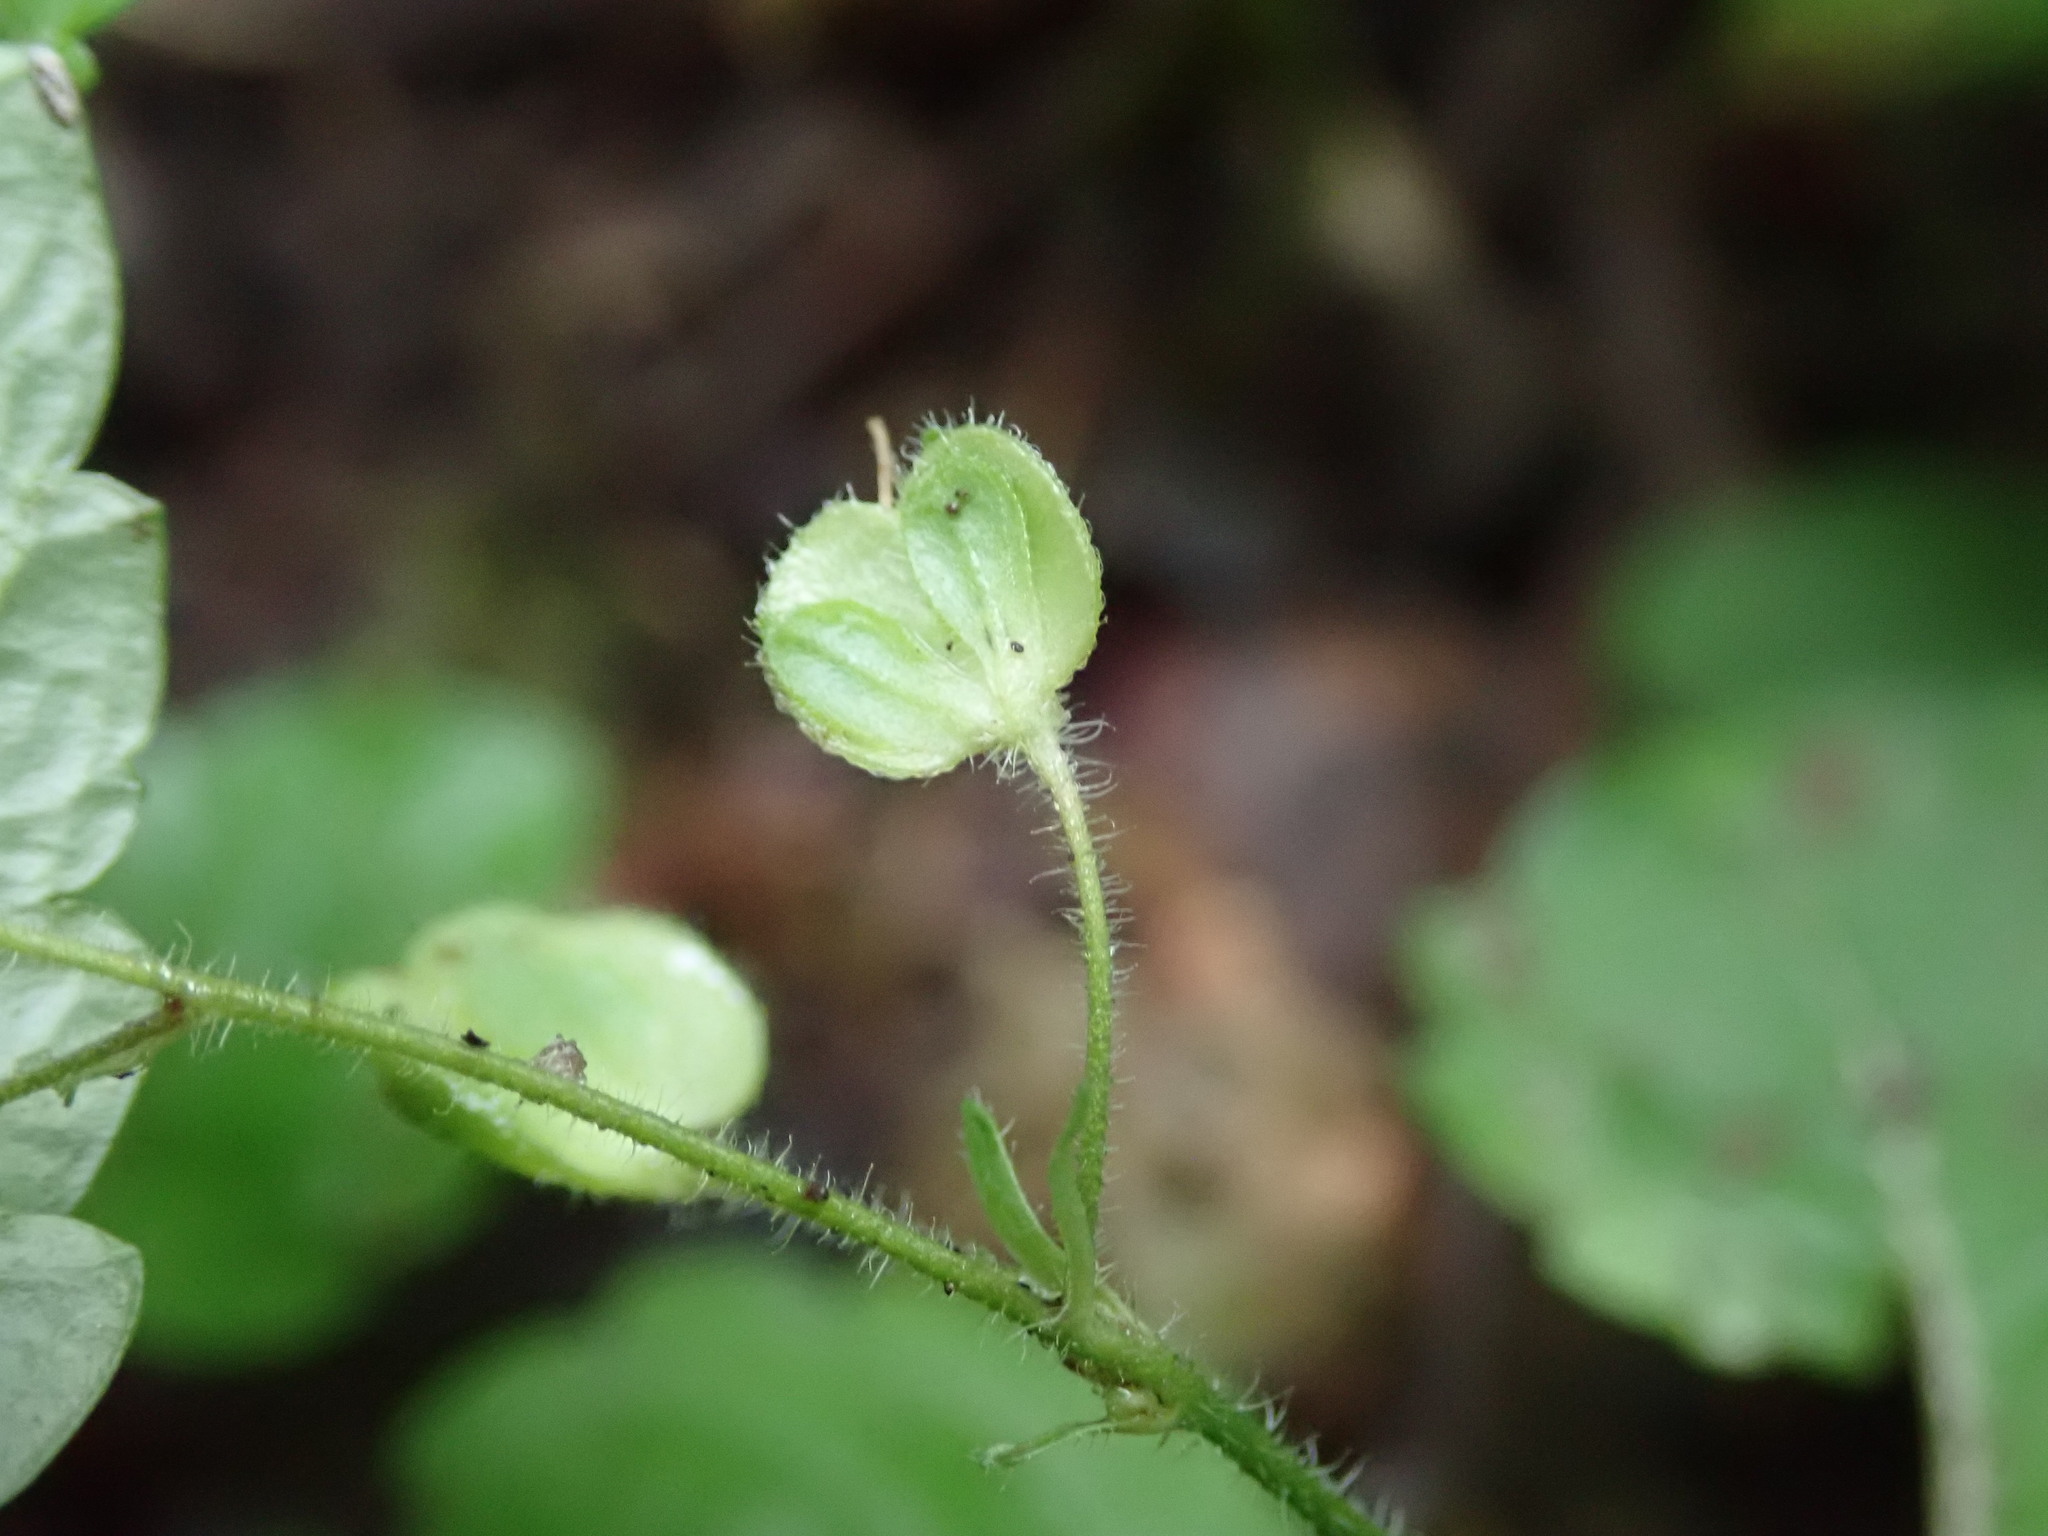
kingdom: Plantae
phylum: Tracheophyta
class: Magnoliopsida
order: Lamiales
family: Plantaginaceae
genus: Veronica
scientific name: Veronica montana
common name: Wood speedwell
